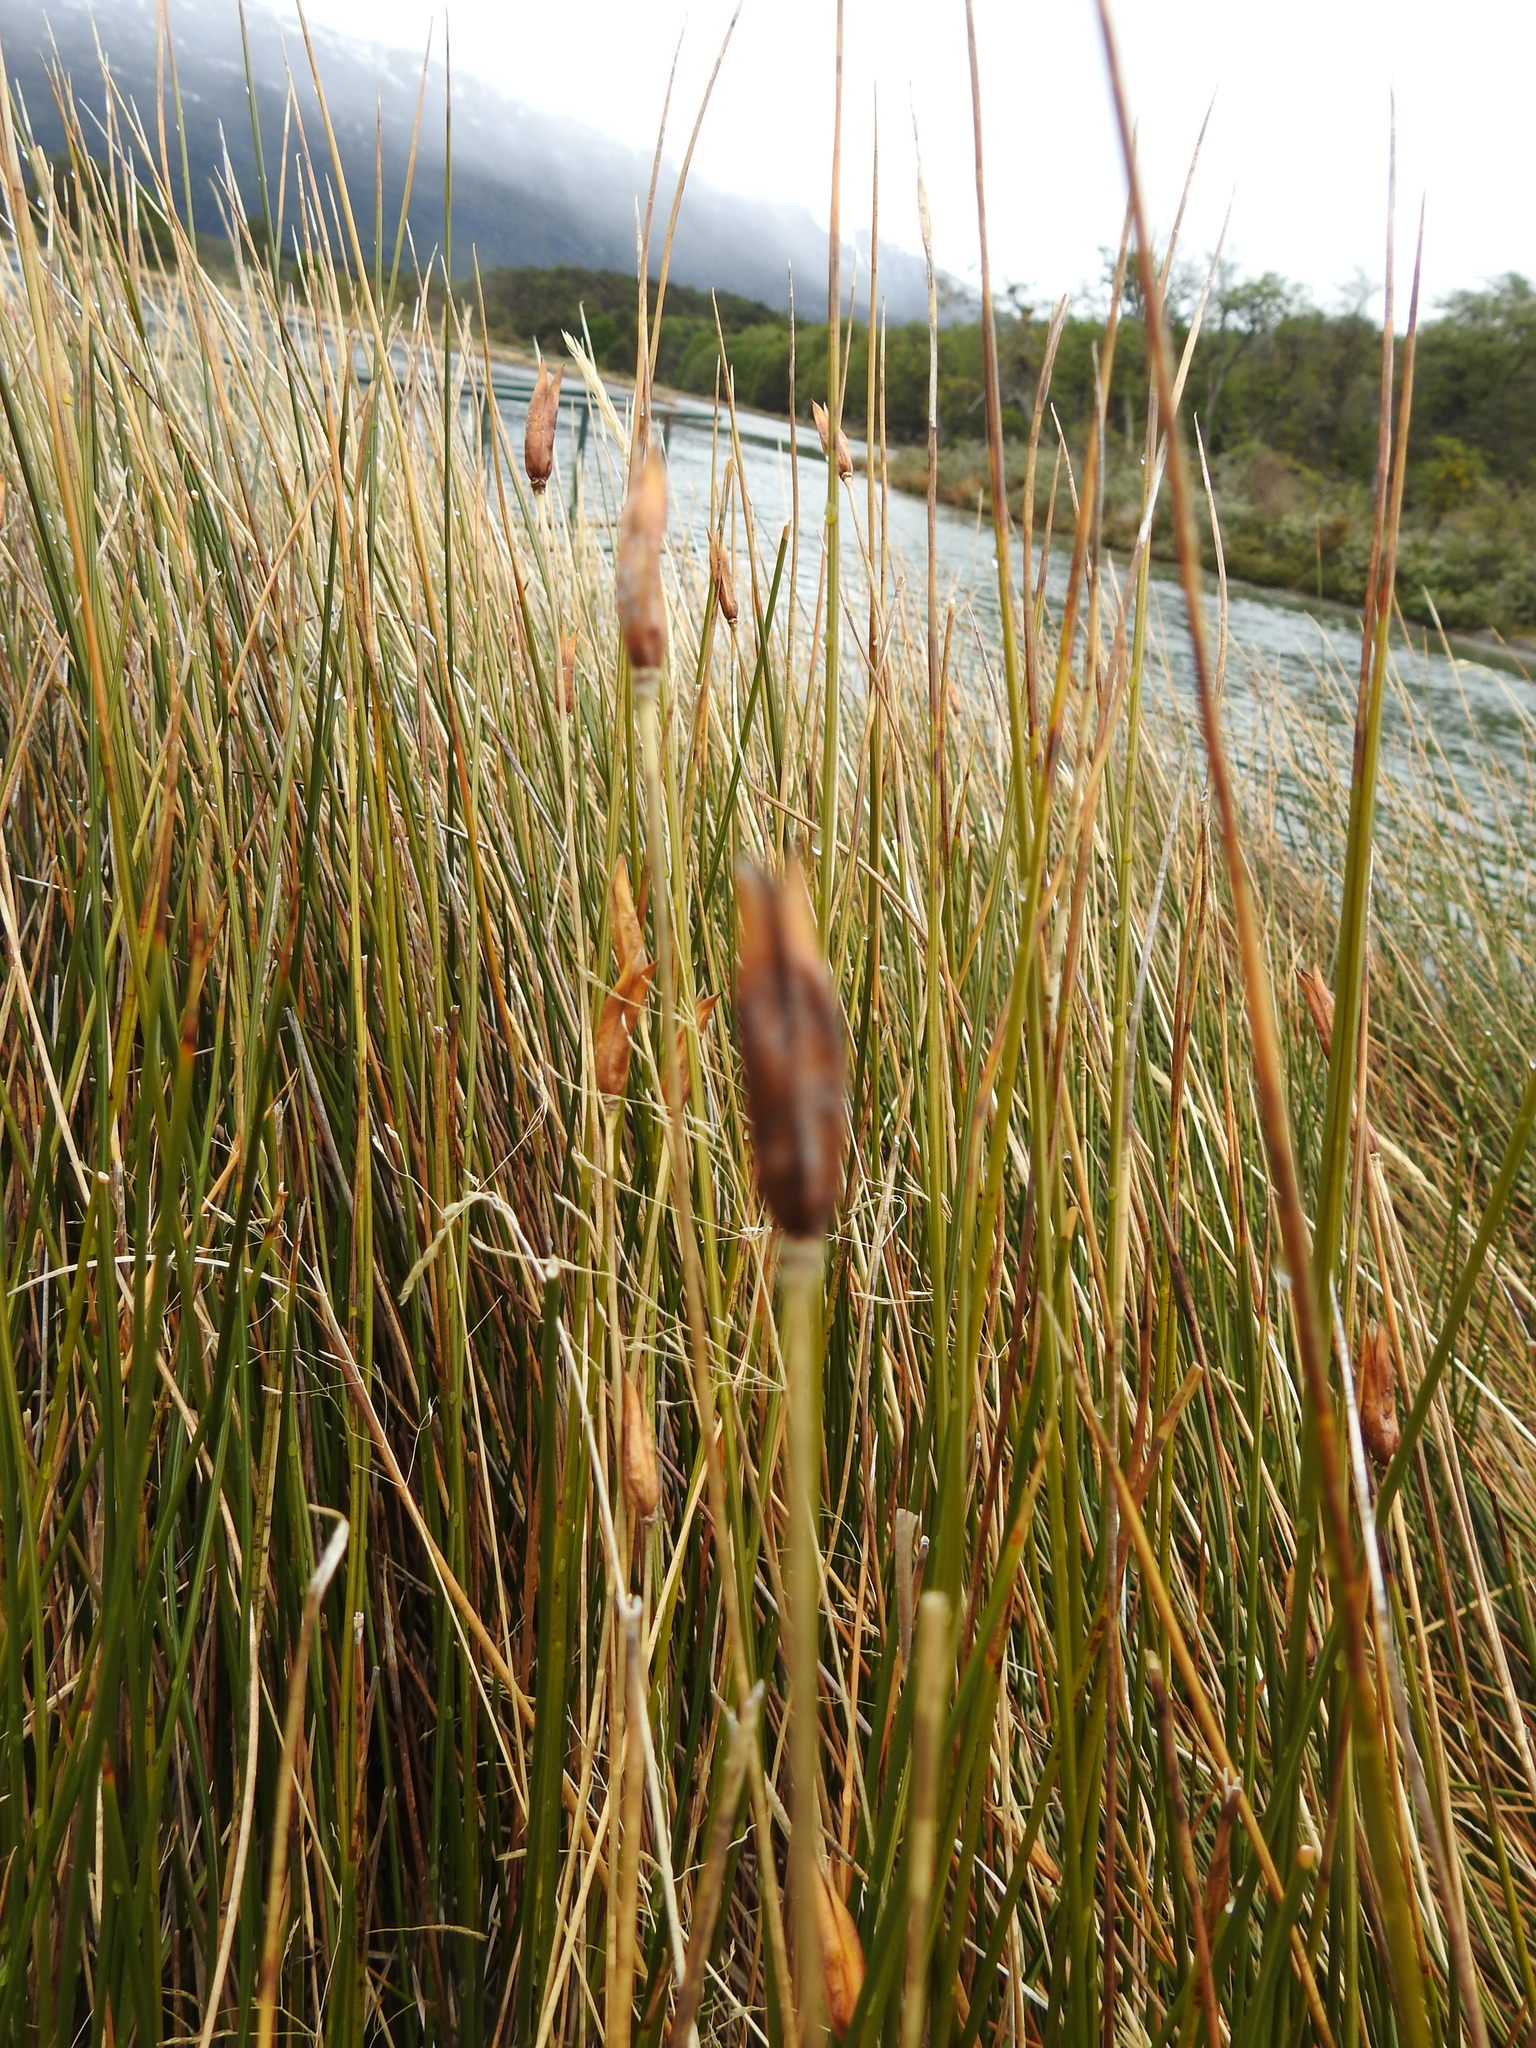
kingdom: Plantae
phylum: Tracheophyta
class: Liliopsida
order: Poales
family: Juncaceae
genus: Marsippospermum
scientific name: Marsippospermum grandiflorum
